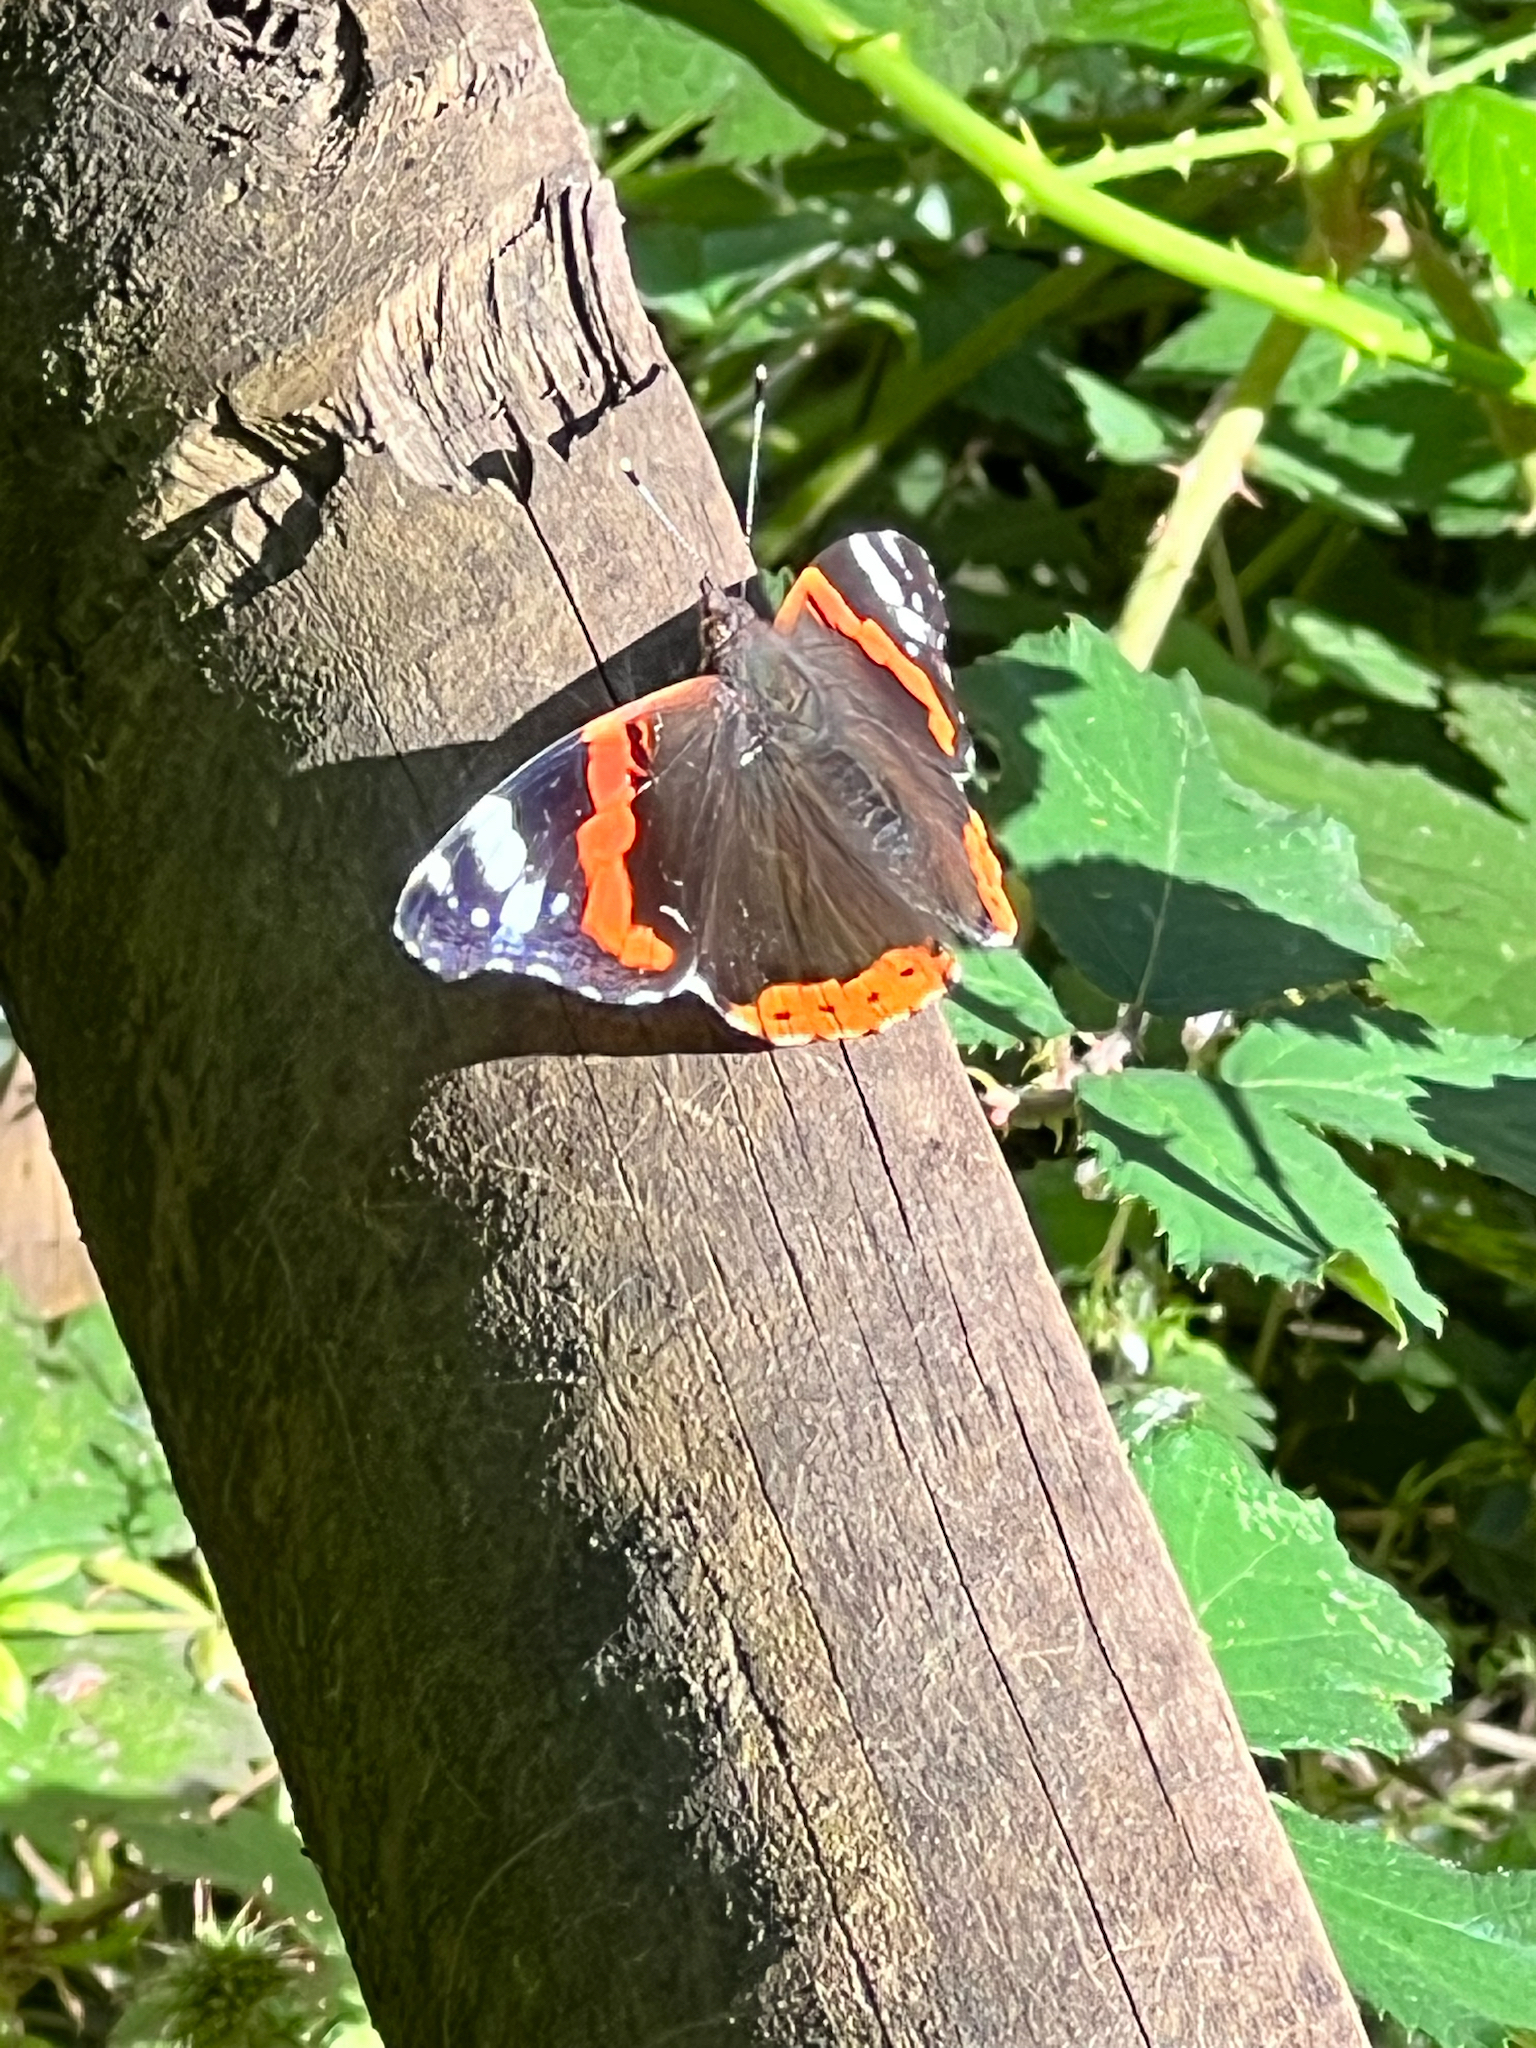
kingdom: Animalia
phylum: Arthropoda
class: Insecta
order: Lepidoptera
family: Nymphalidae
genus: Vanessa
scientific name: Vanessa atalanta
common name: Red admiral
